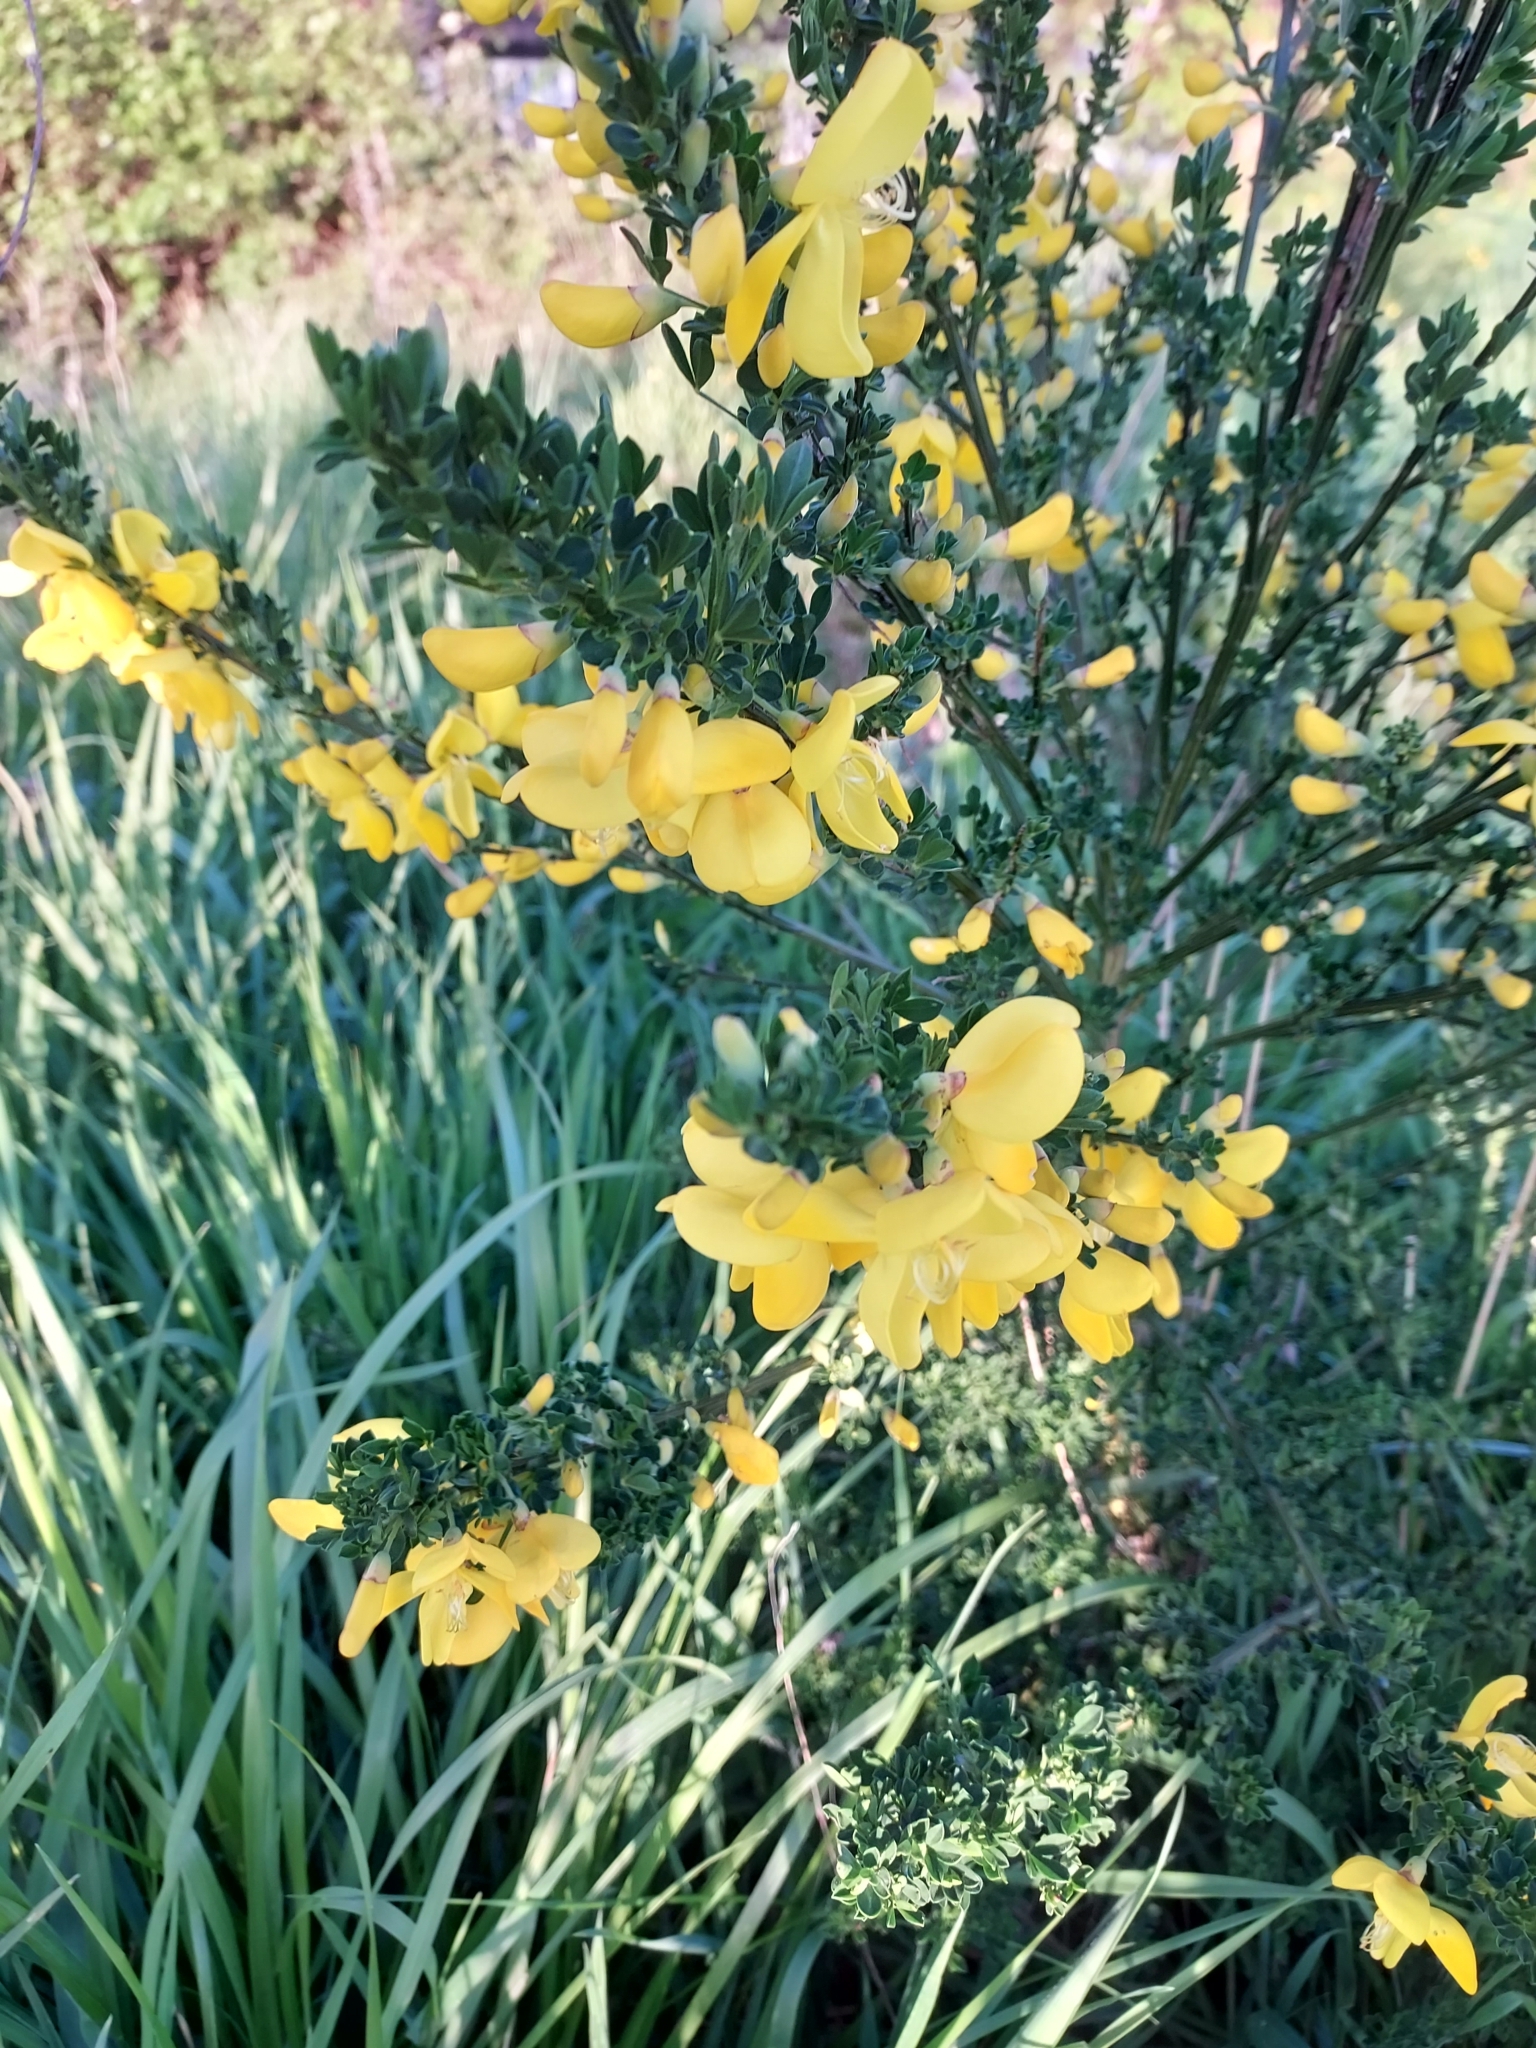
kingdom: Plantae
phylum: Tracheophyta
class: Magnoliopsida
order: Fabales
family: Fabaceae
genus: Cytisus
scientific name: Cytisus scoparius
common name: Scotch broom
